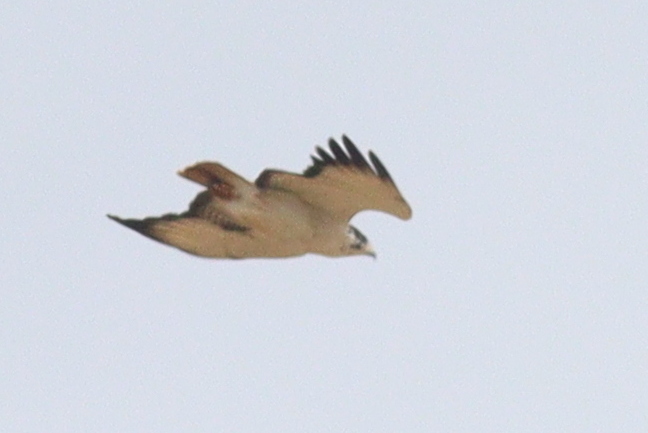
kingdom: Animalia
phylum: Chordata
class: Aves
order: Accipitriformes
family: Accipitridae
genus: Buteo
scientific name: Buteo augur
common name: Augur buzzard
